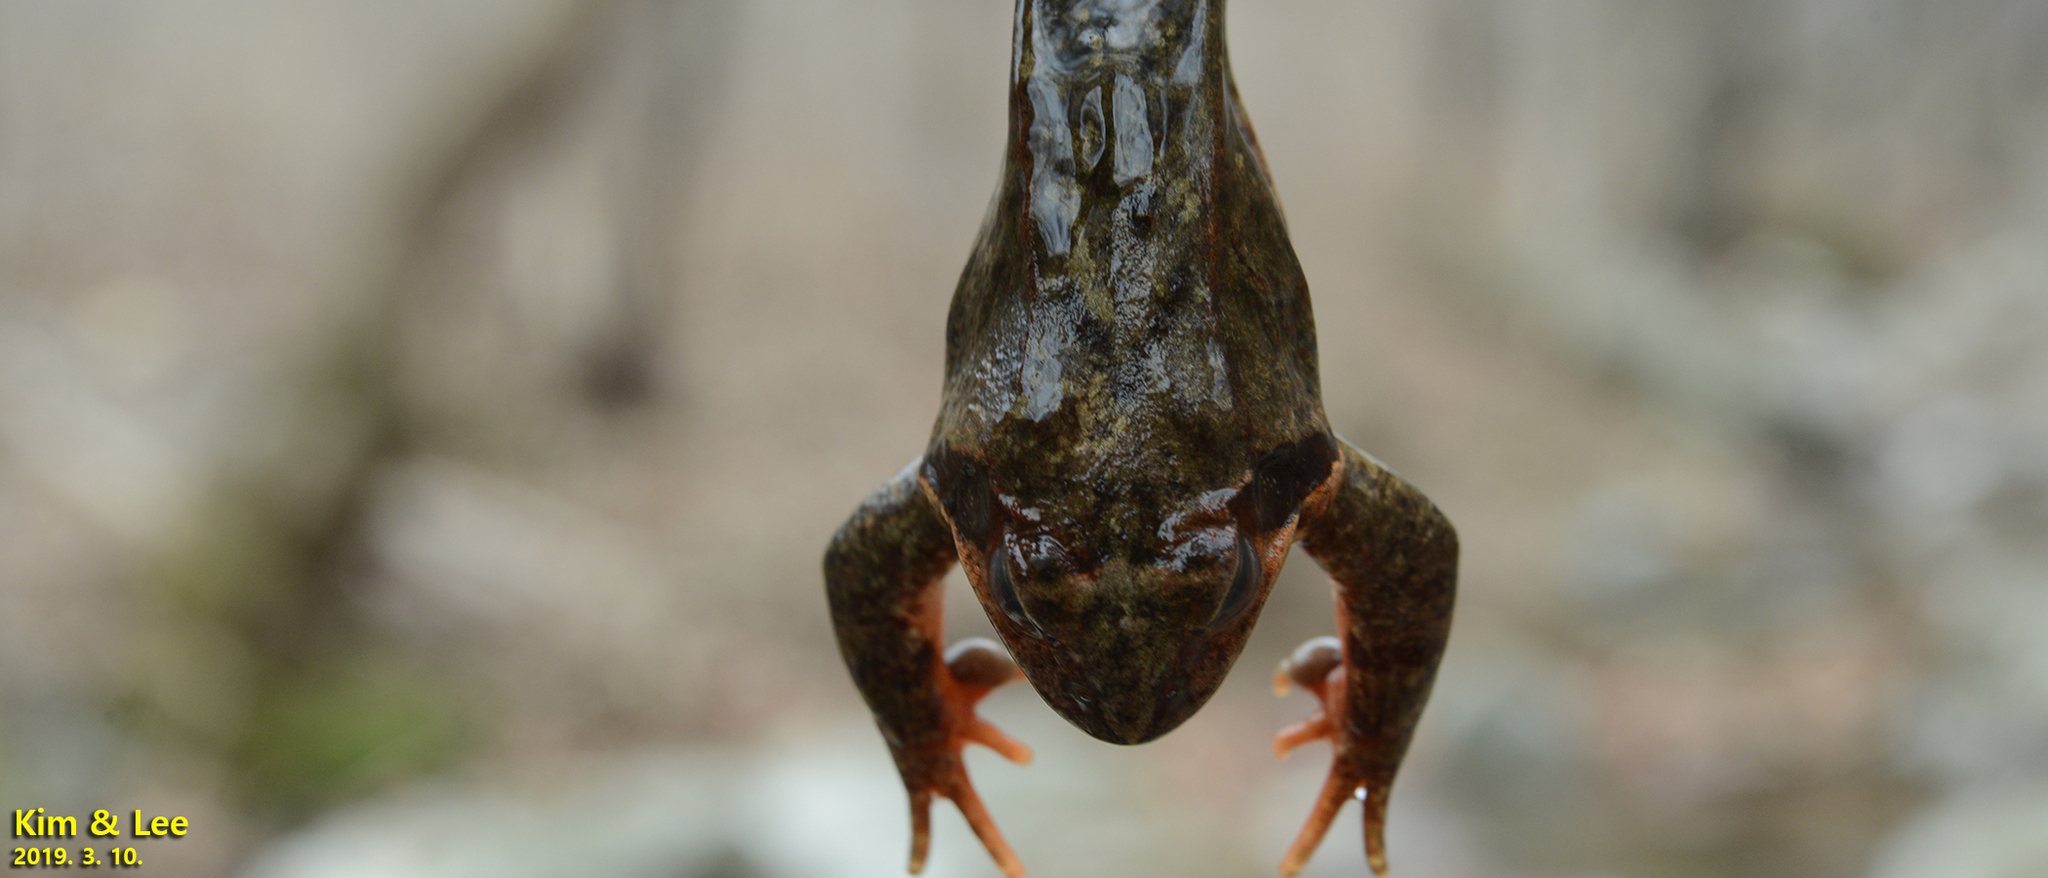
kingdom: Animalia
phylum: Chordata
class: Amphibia
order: Anura
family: Ranidae
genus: Rana
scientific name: Rana dybowskii
